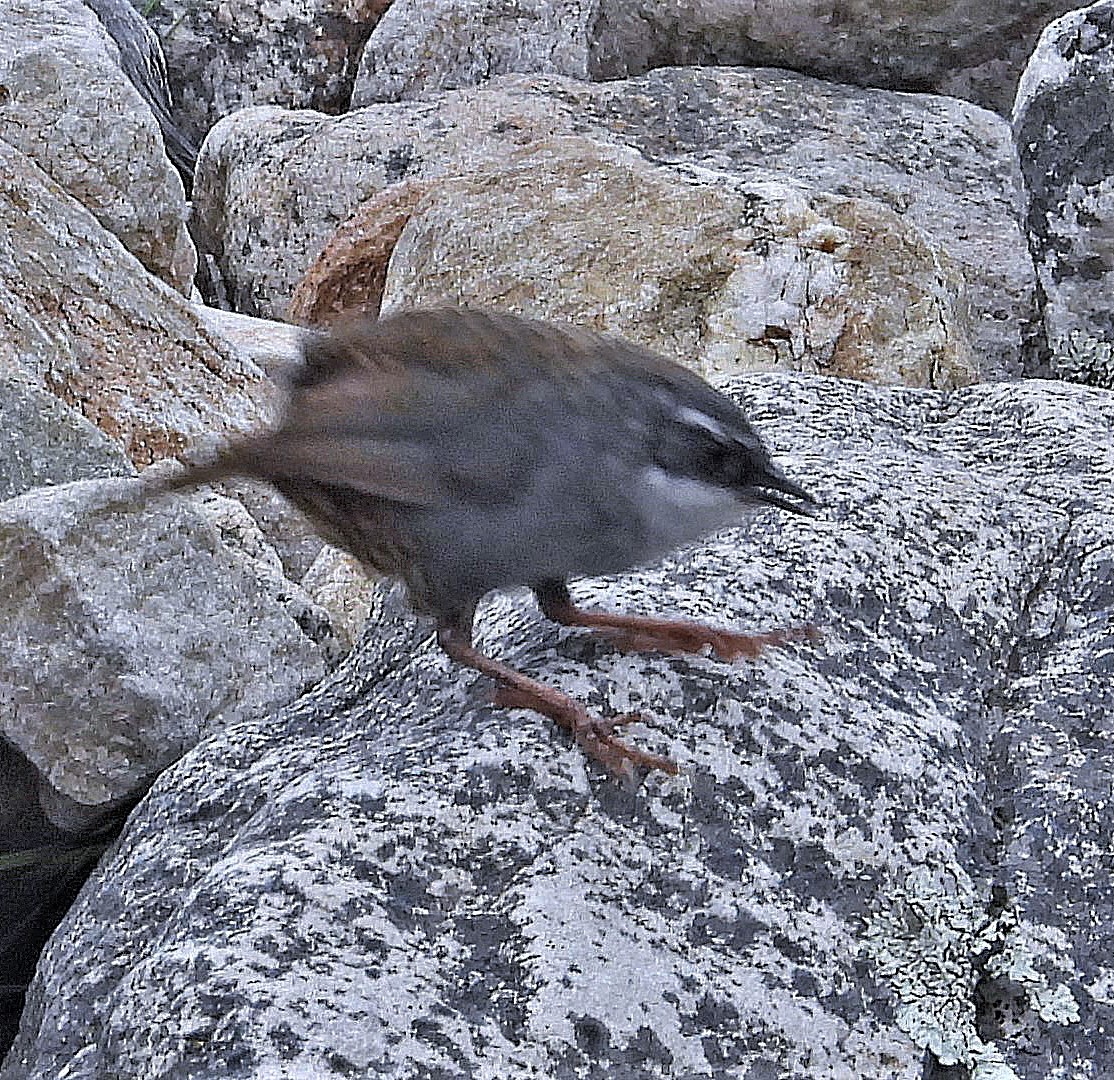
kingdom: Animalia
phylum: Chordata
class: Aves
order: Passeriformes
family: Rhinocryptidae
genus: Scytalopus
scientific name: Scytalopus zimmeri
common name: Zimmer's tapaculo
